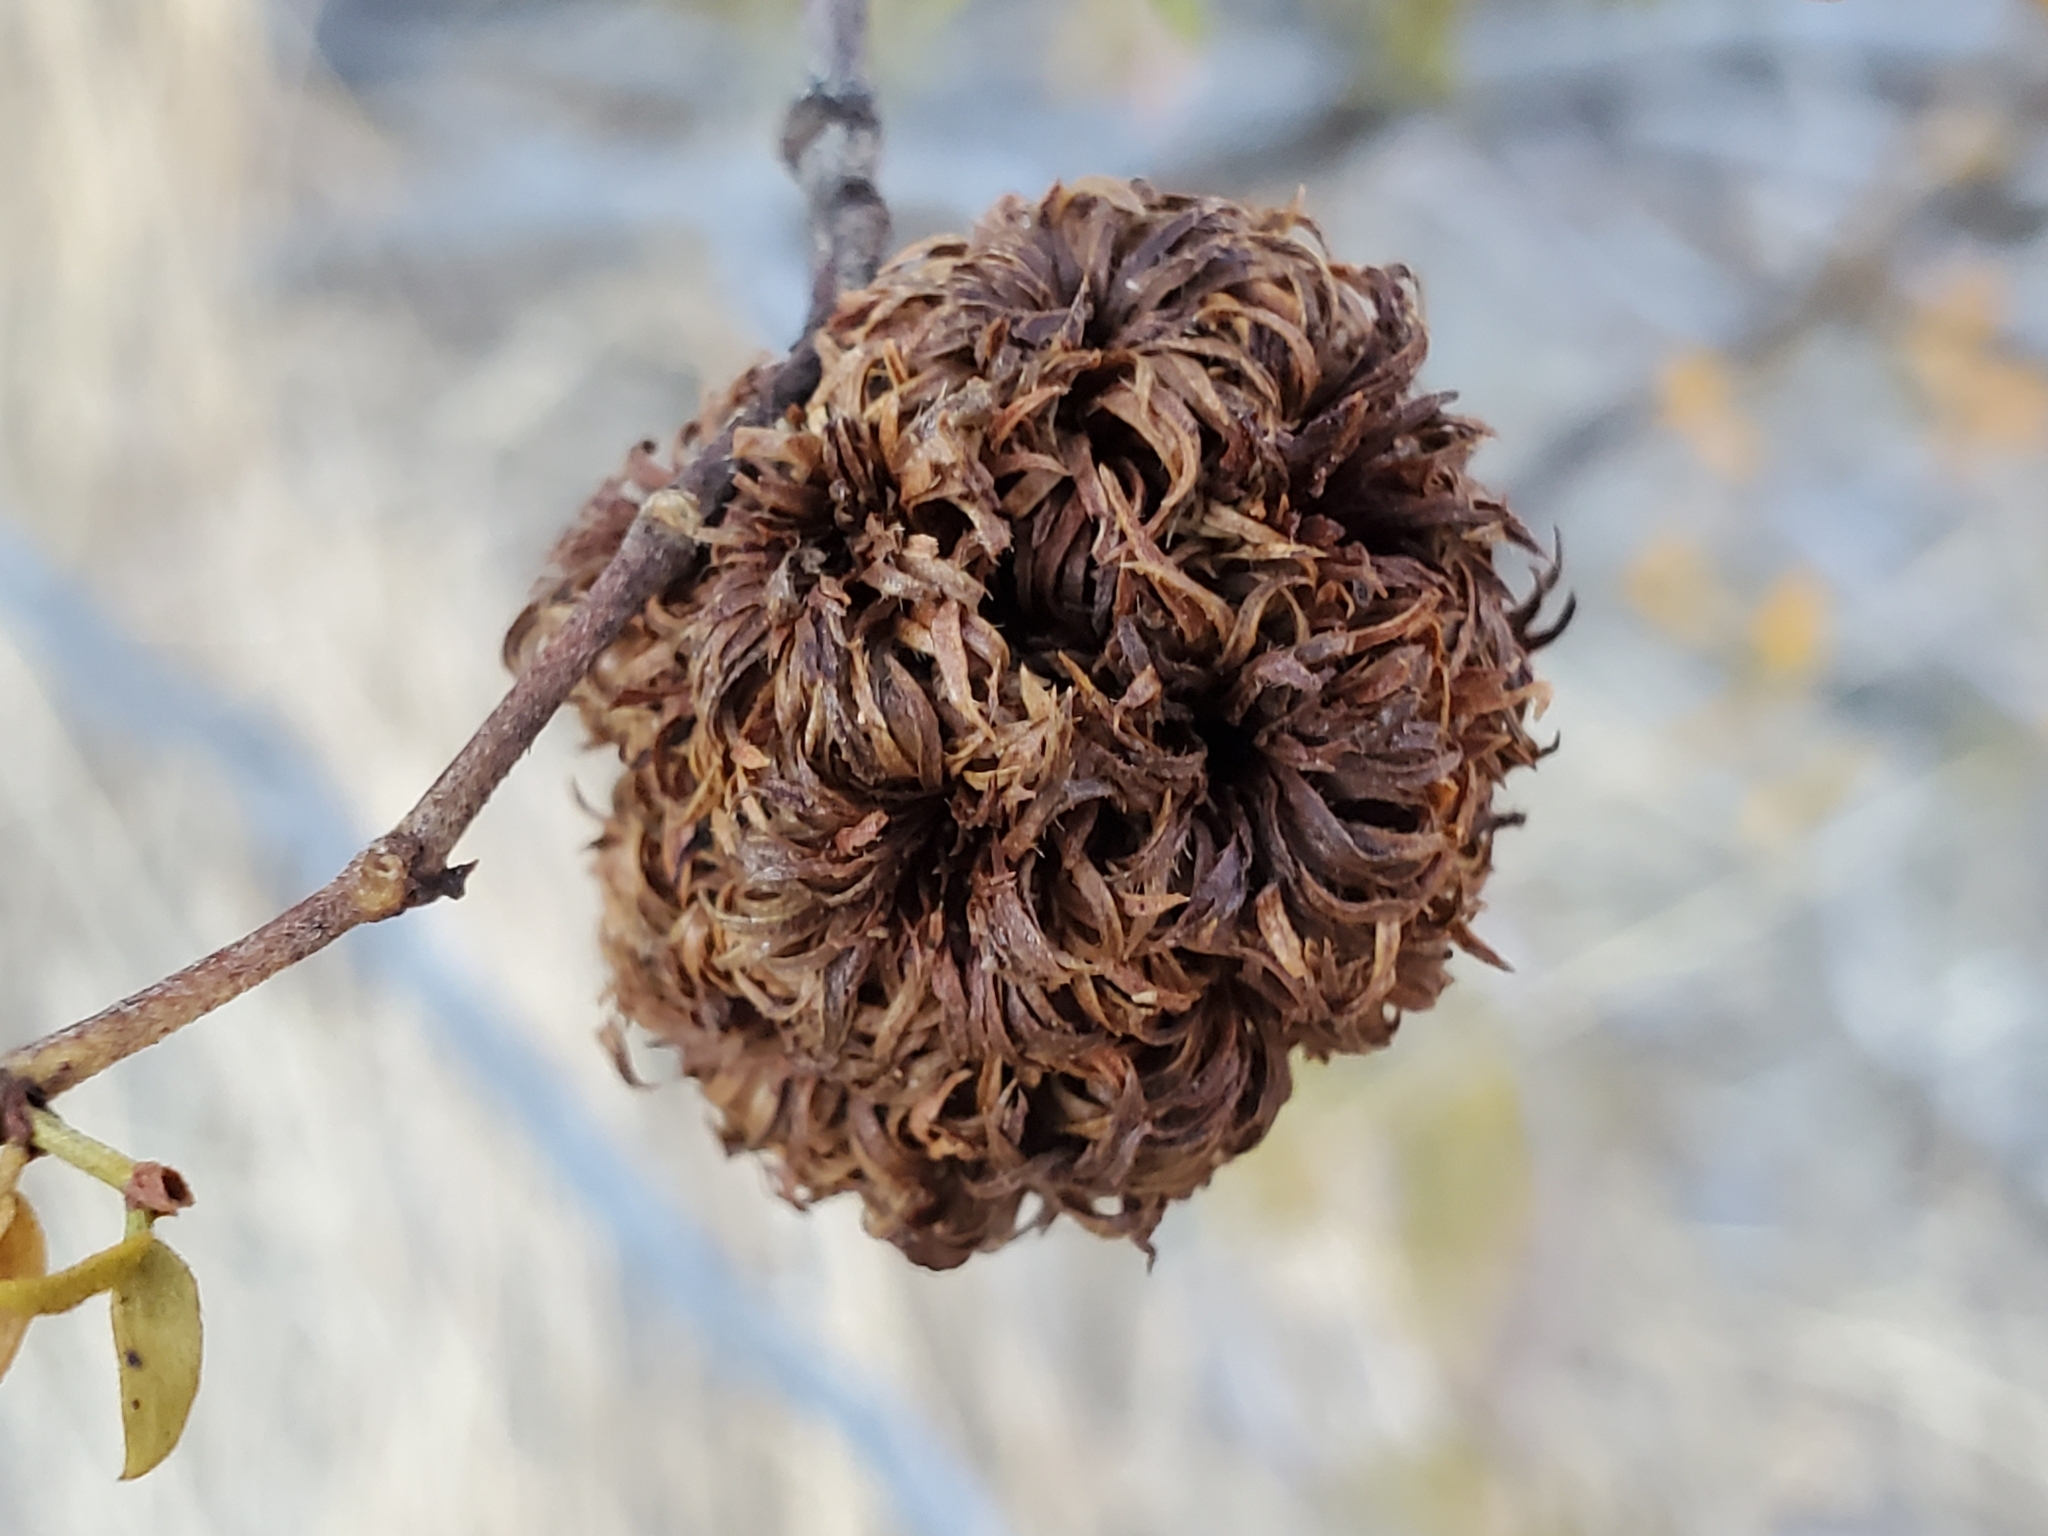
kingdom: Animalia
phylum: Arthropoda
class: Insecta
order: Diptera
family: Cecidomyiidae
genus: Asphondylia
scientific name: Asphondylia auripila
